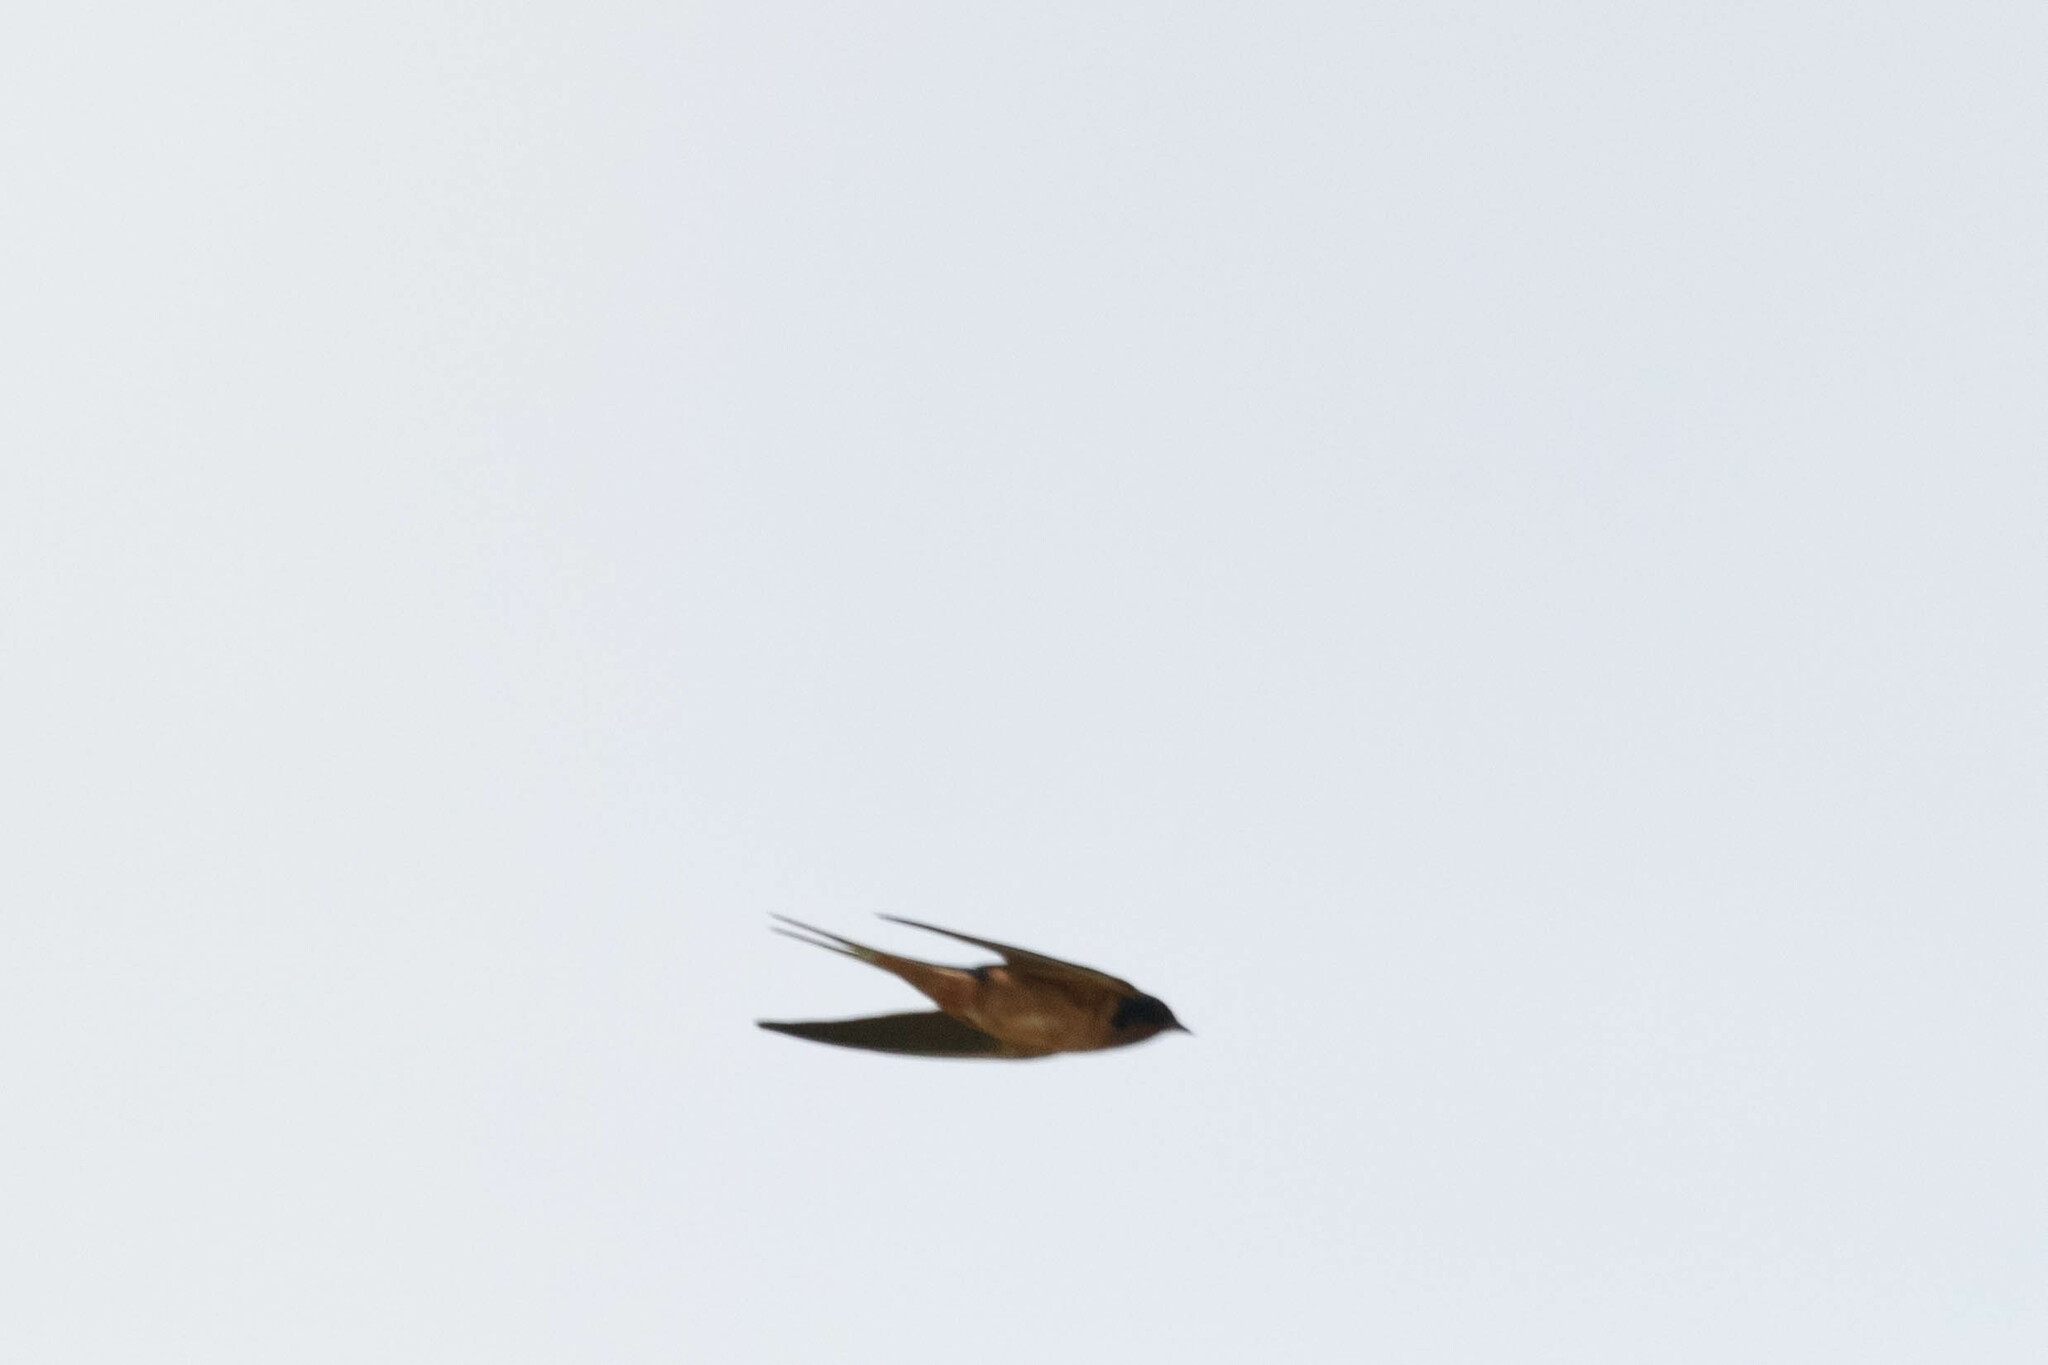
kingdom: Animalia
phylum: Chordata
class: Aves
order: Passeriformes
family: Hirundinidae
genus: Hirundo
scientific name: Hirundo rustica
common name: Barn swallow
